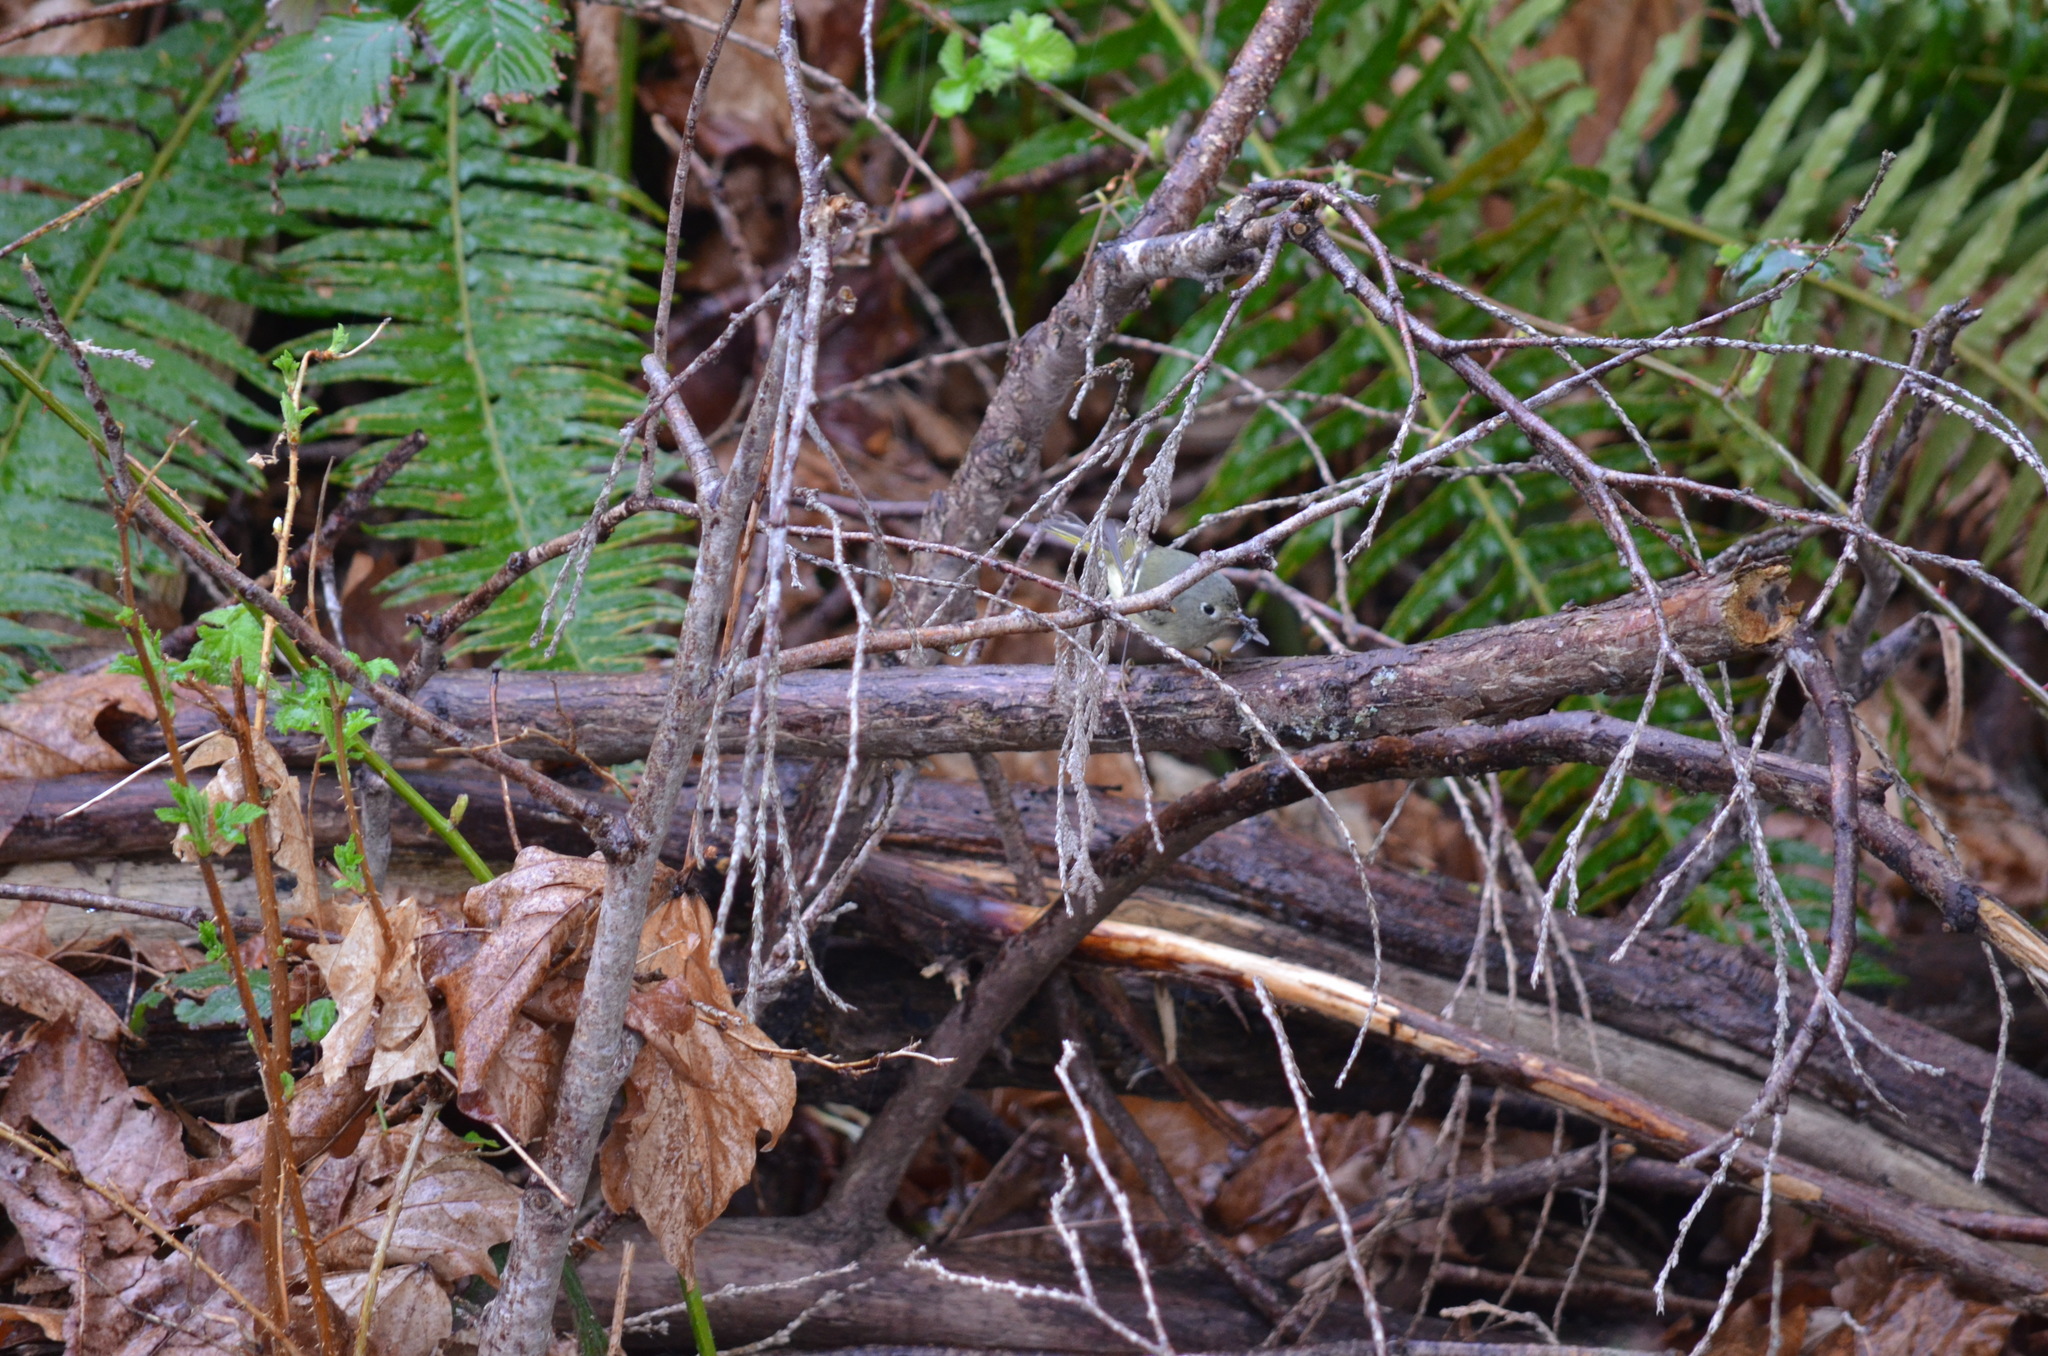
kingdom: Animalia
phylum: Chordata
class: Aves
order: Passeriformes
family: Regulidae
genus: Regulus
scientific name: Regulus calendula
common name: Ruby-crowned kinglet
